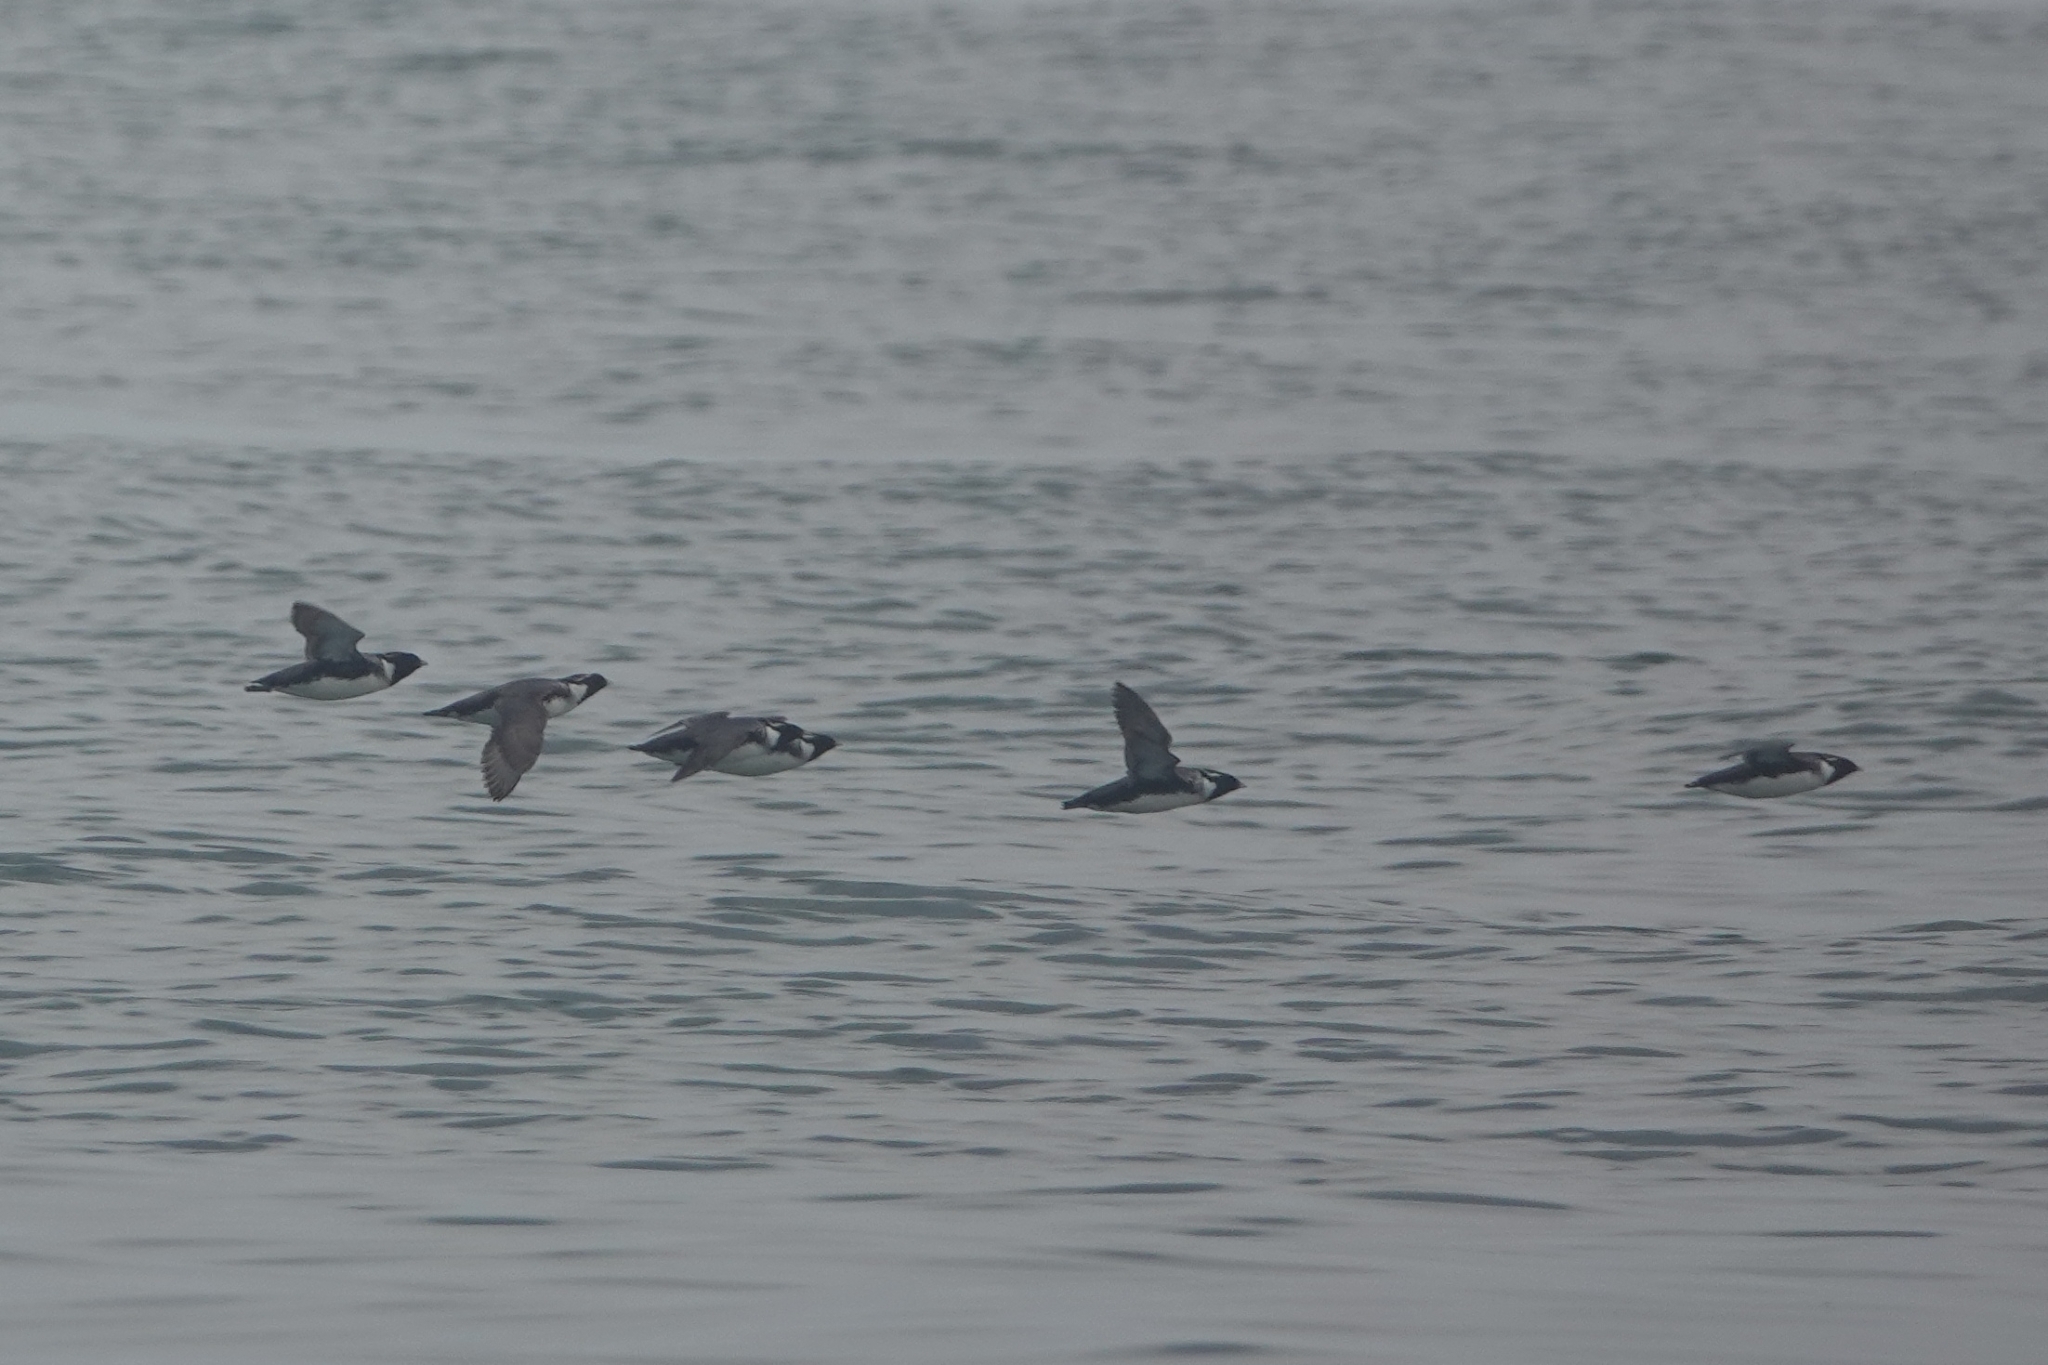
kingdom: Animalia
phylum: Chordata
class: Aves
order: Charadriiformes
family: Alcidae
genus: Synthliboramphus
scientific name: Synthliboramphus antiquus
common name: Ancient murrelet
